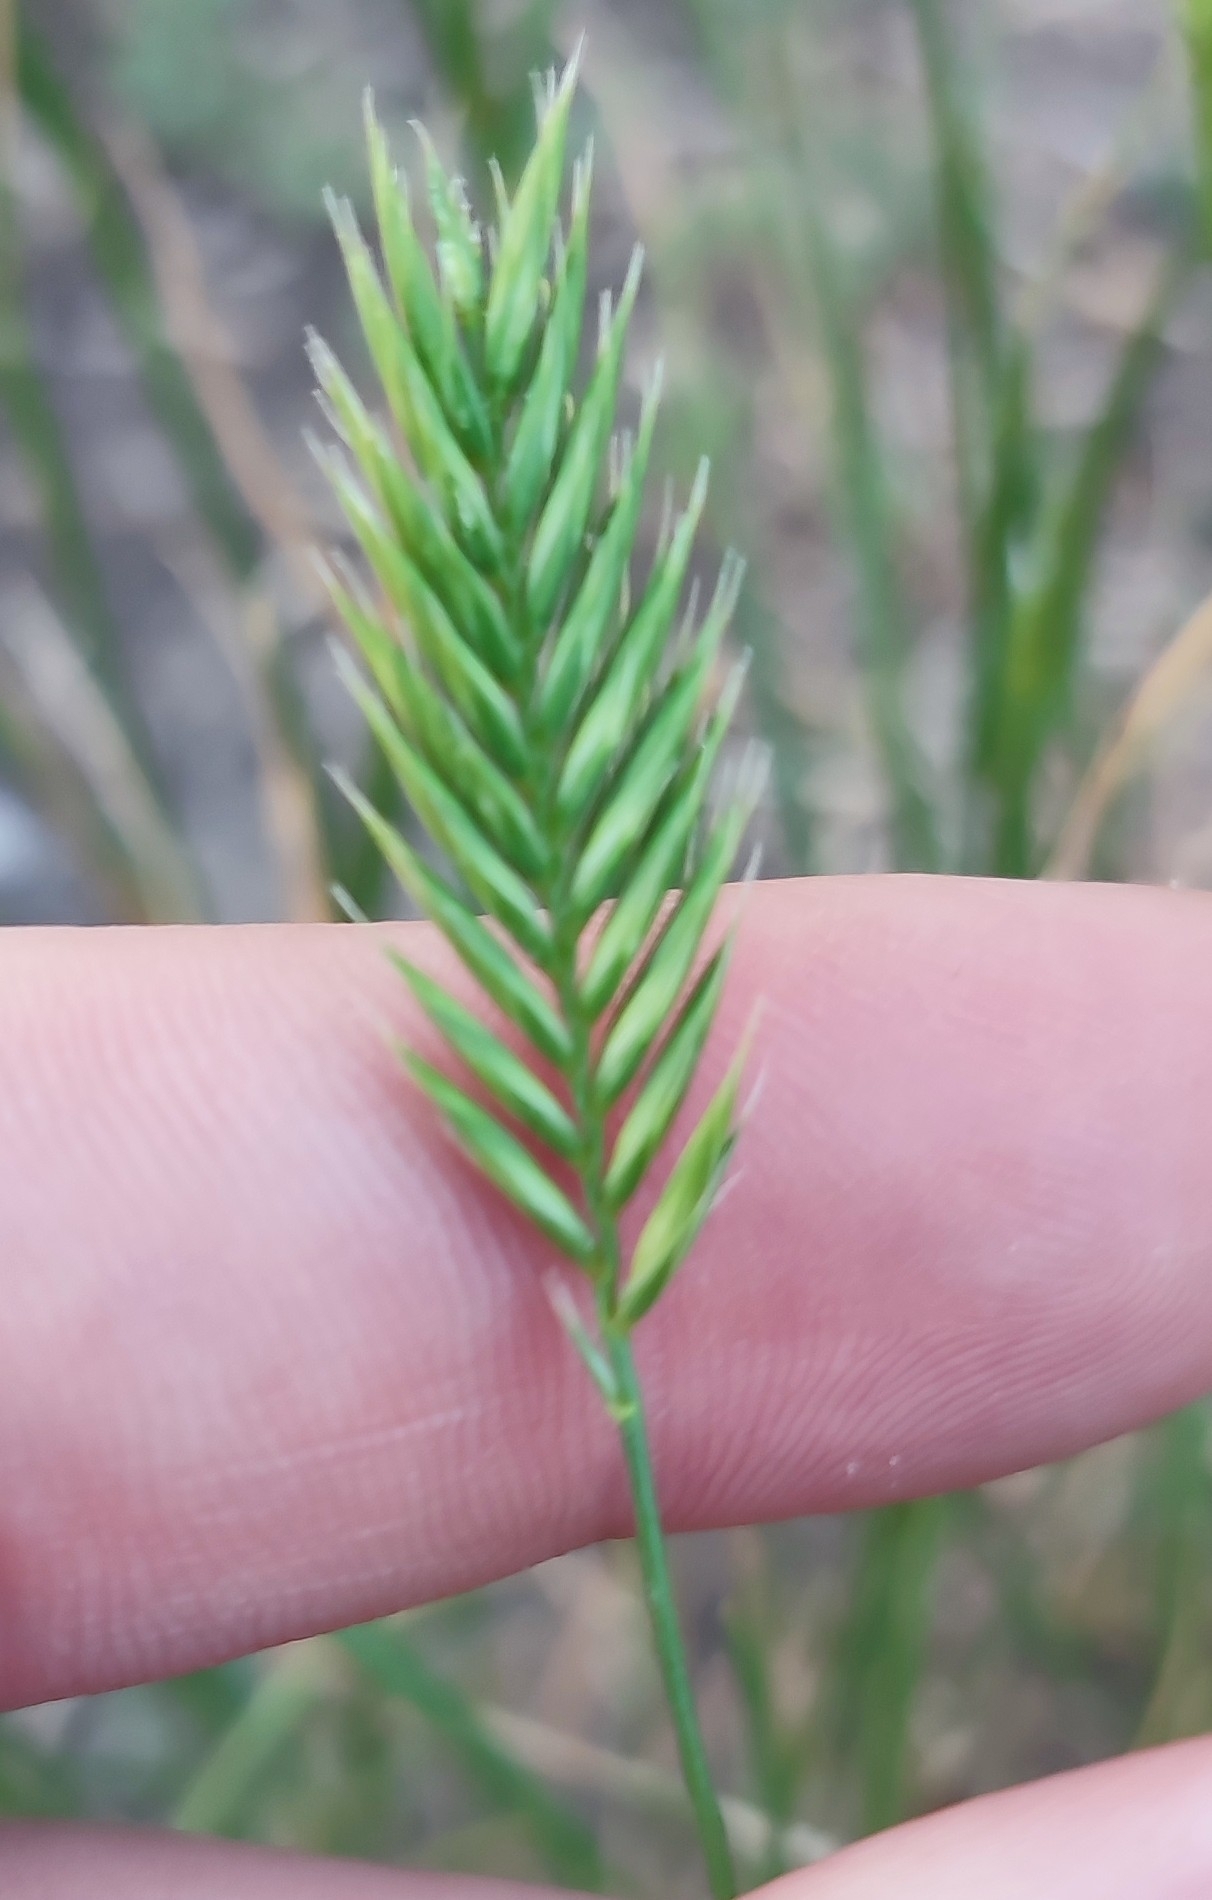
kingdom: Plantae
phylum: Tracheophyta
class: Liliopsida
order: Poales
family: Poaceae
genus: Agropyron
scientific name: Agropyron cristatum
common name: Crested wheatgrass
